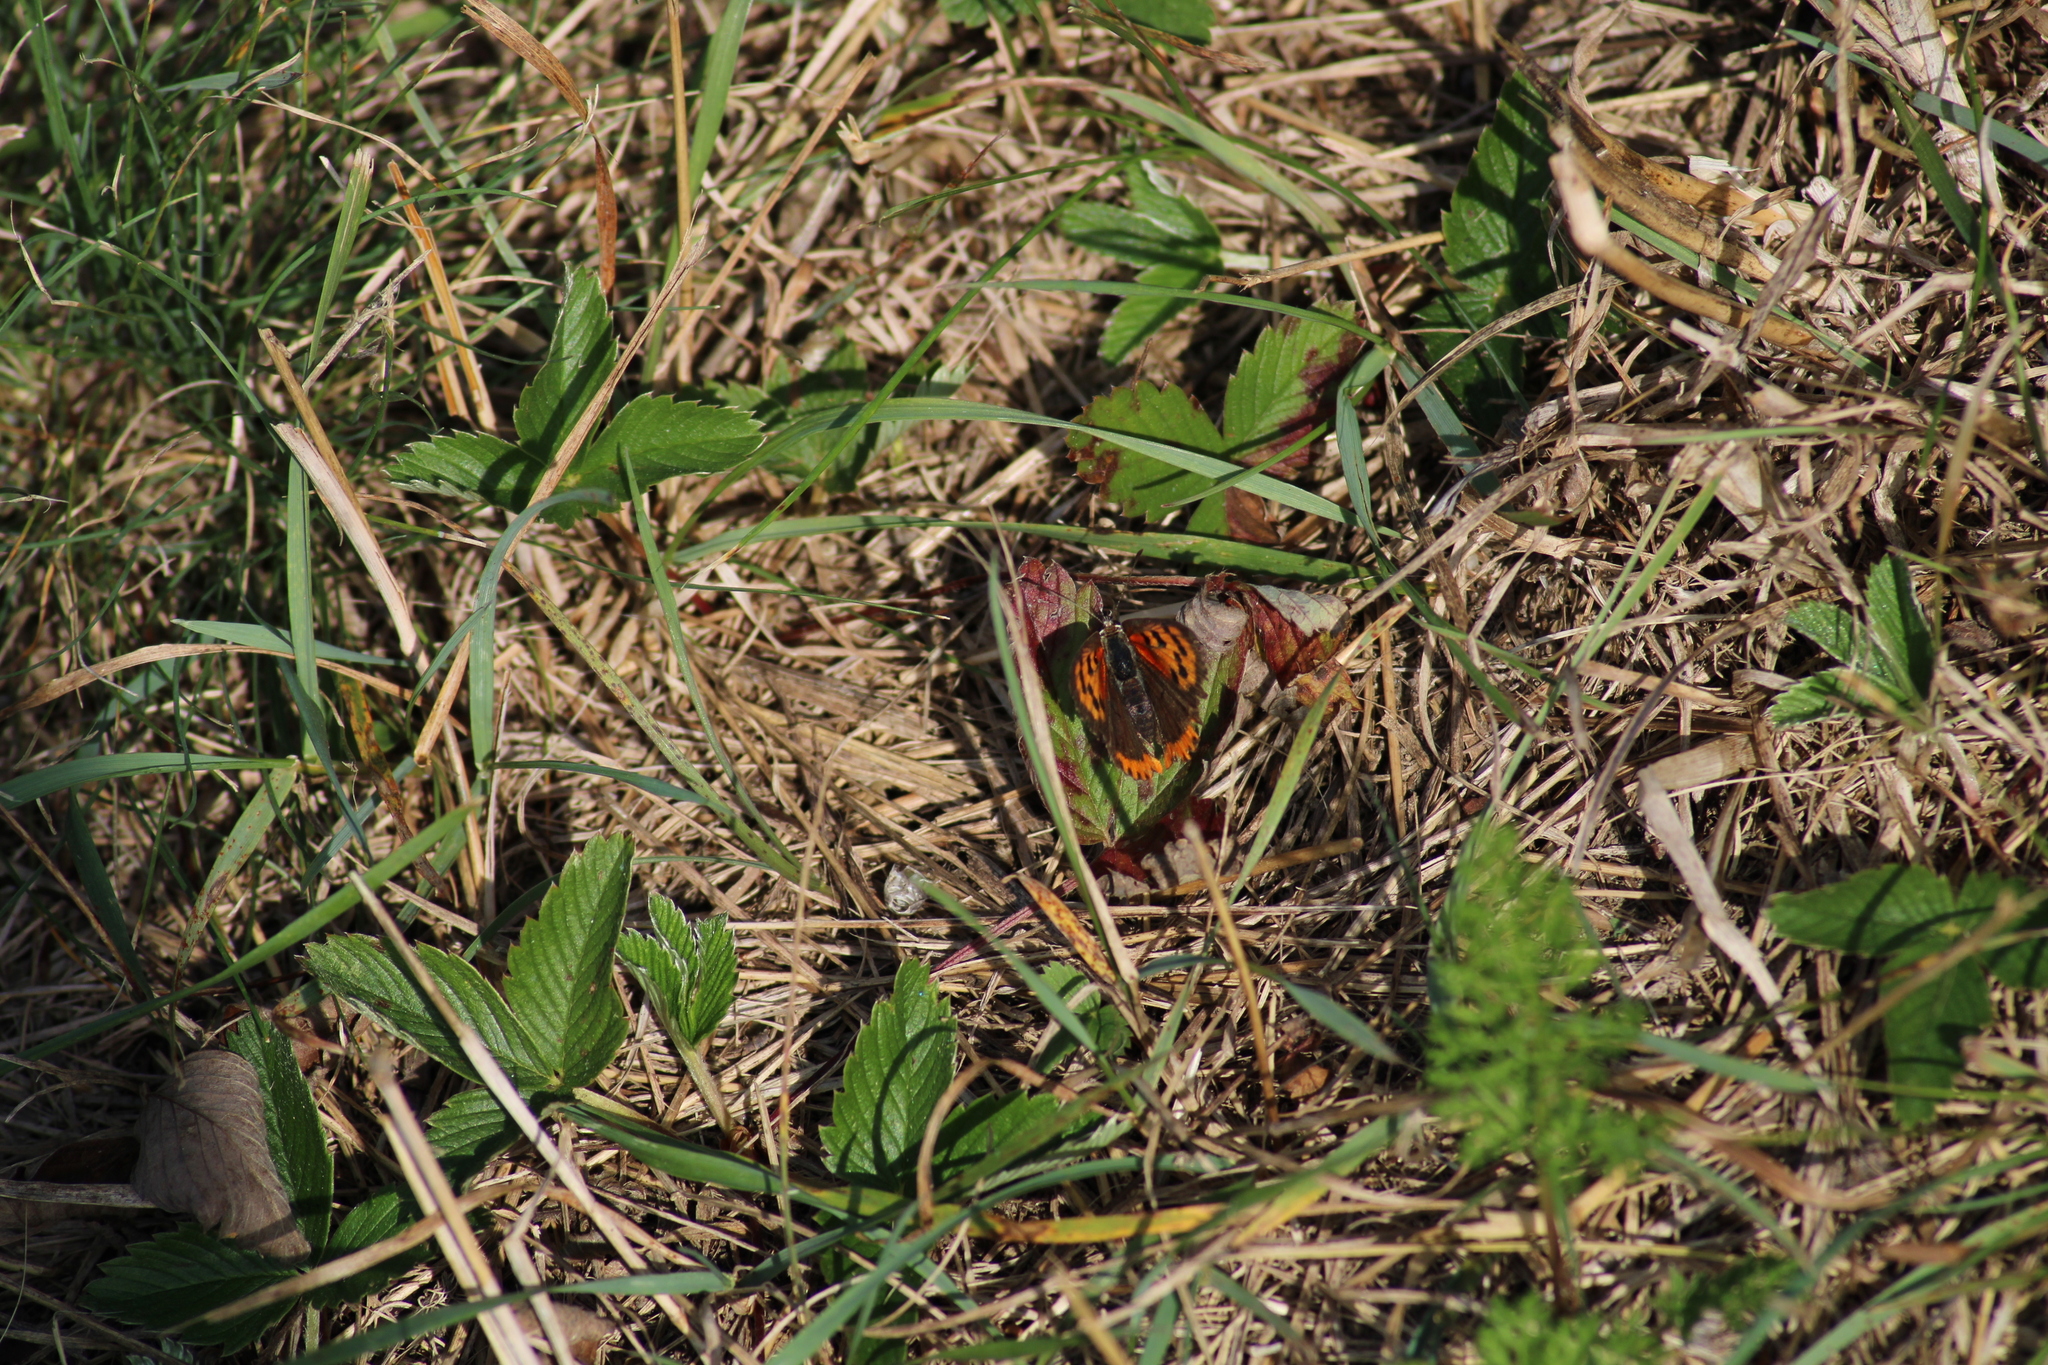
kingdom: Animalia
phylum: Arthropoda
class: Insecta
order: Lepidoptera
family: Lycaenidae
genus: Lycaena
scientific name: Lycaena phlaeas
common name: Small copper
